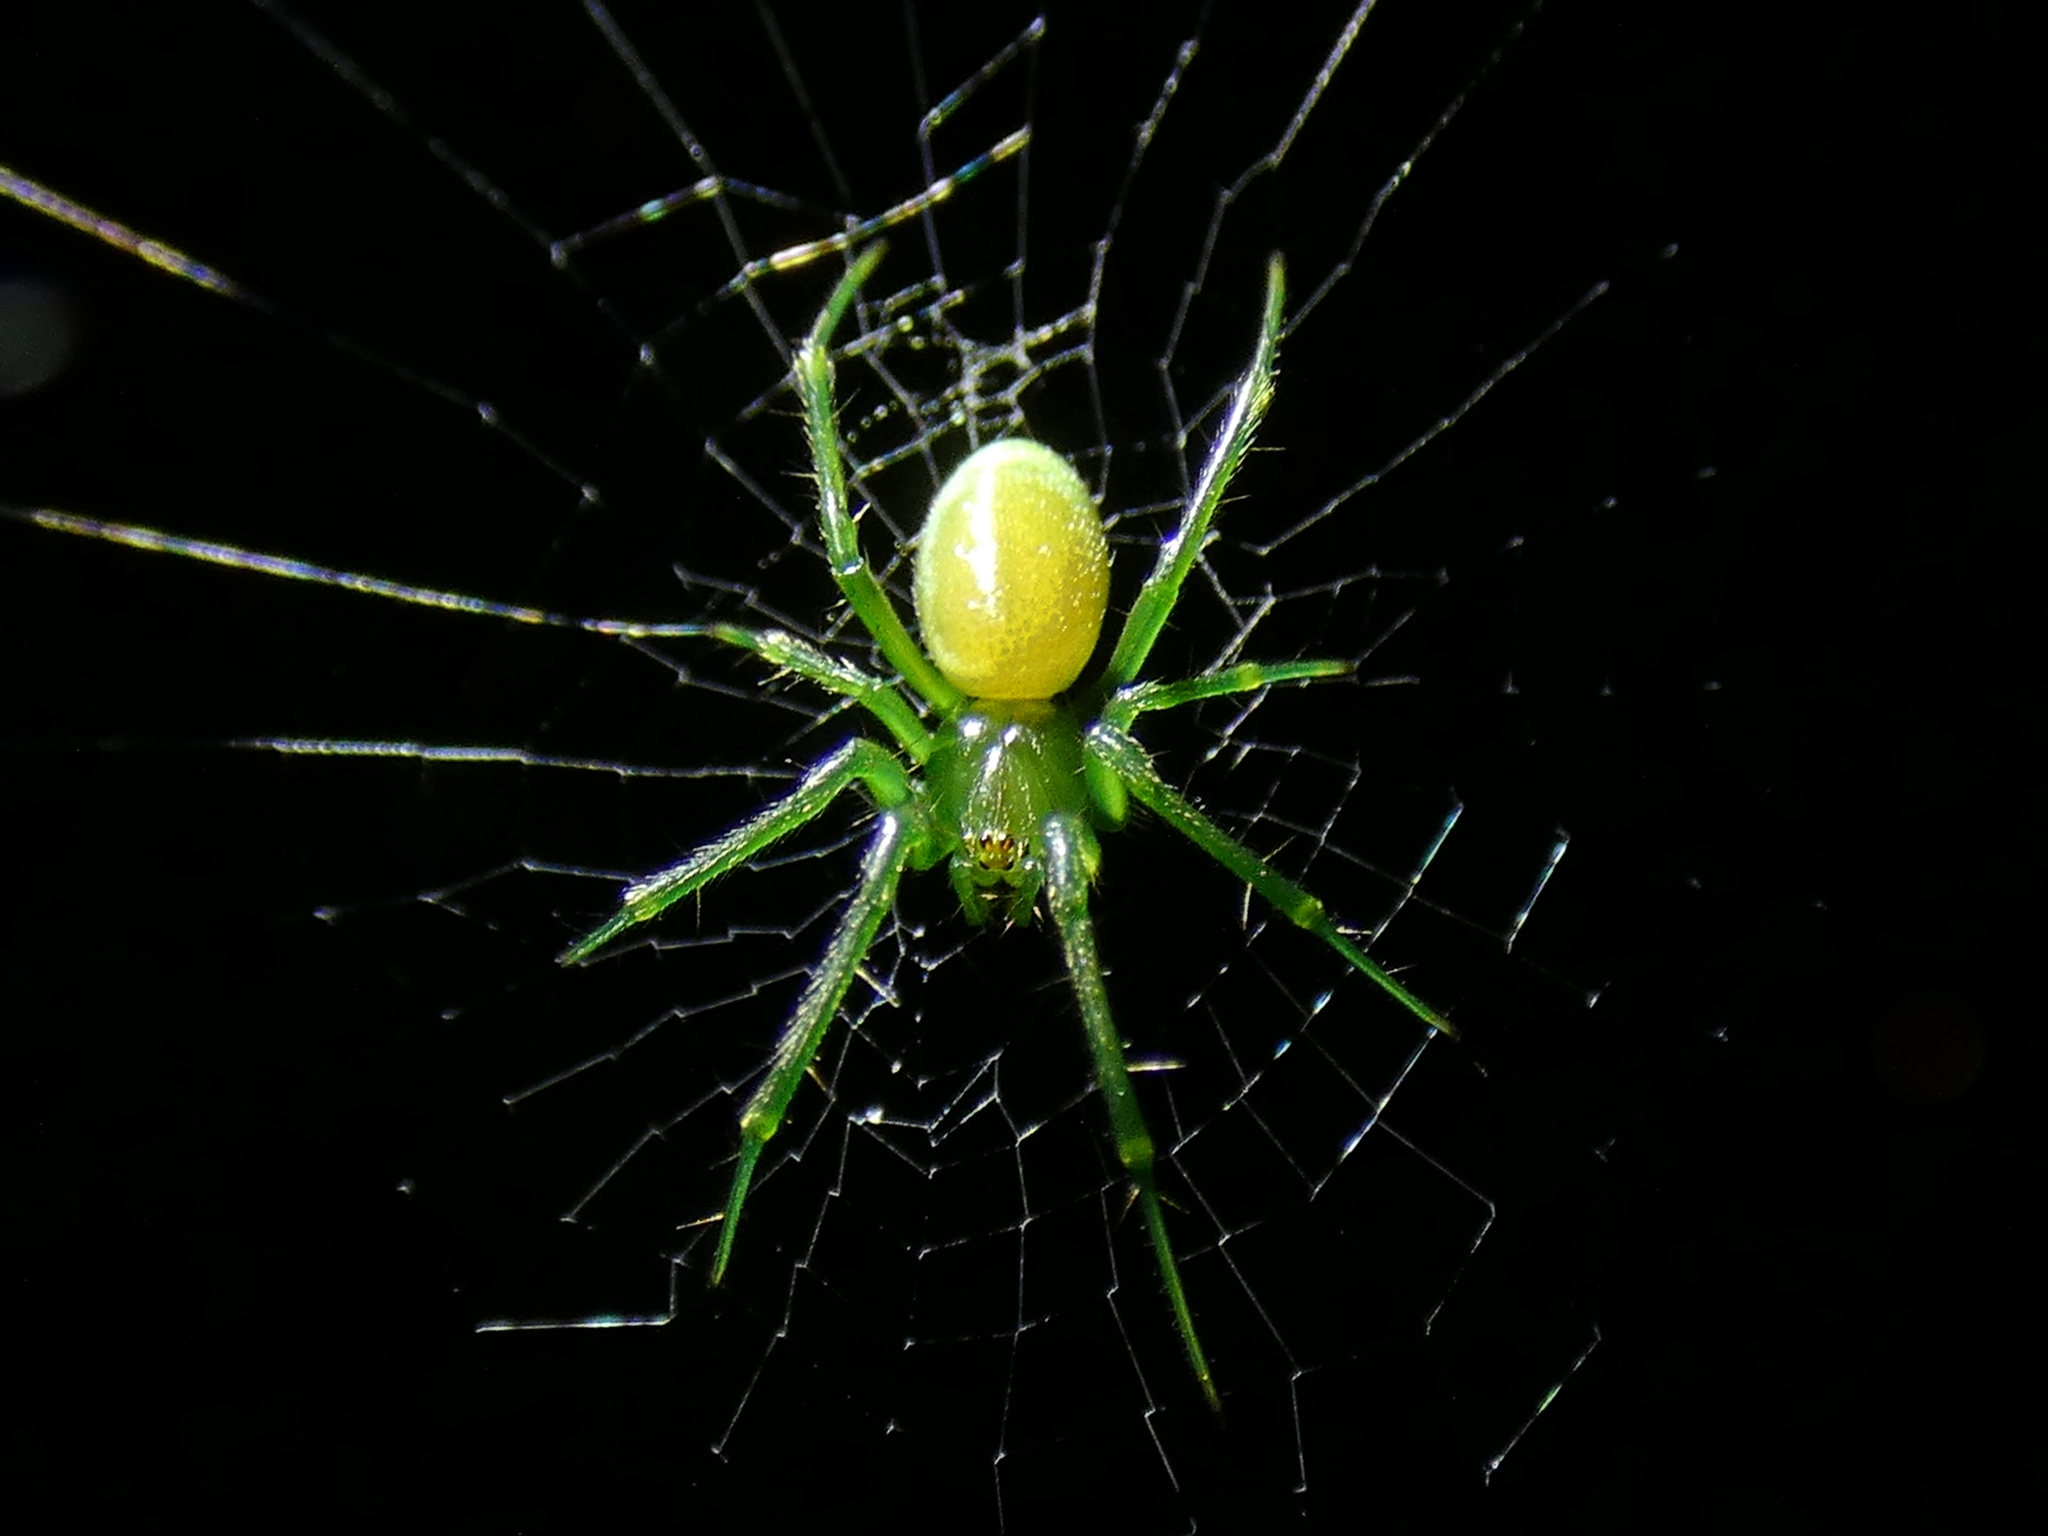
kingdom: Animalia
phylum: Arthropoda
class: Arachnida
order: Araneae
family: Araneidae
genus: Abba
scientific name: Abba
